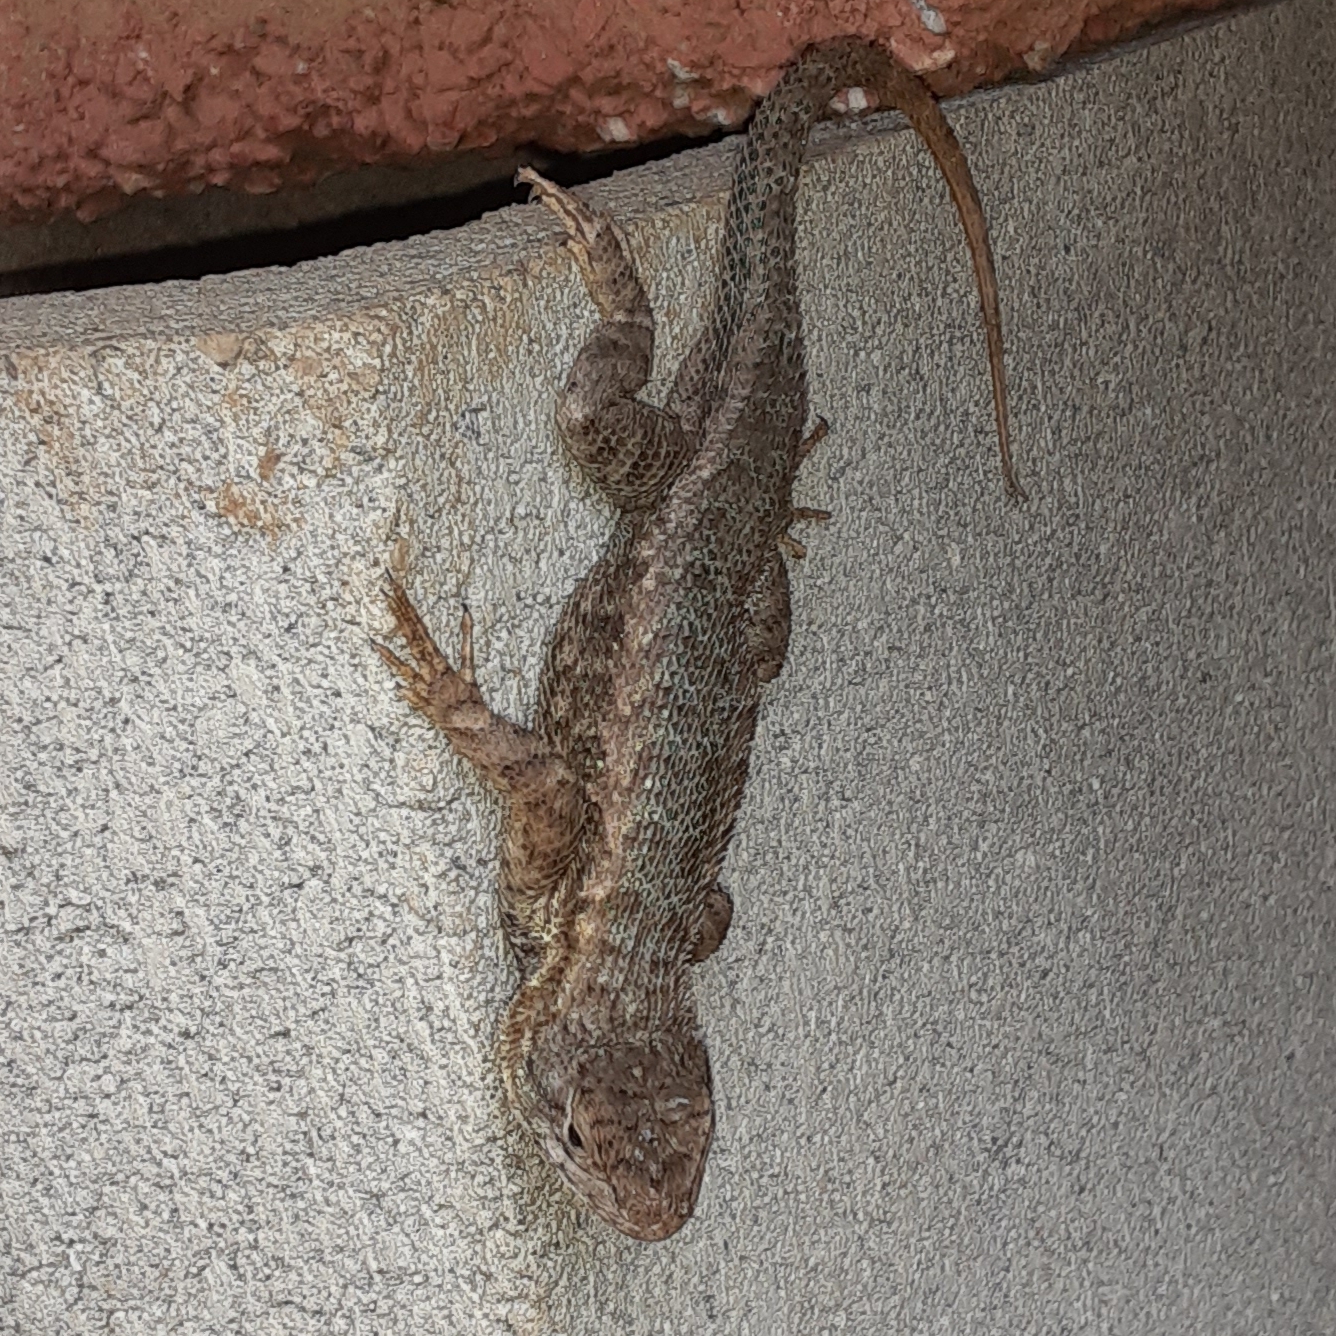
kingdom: Animalia
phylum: Chordata
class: Squamata
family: Phrynosomatidae
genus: Sceloporus
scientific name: Sceloporus occidentalis
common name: Western fence lizard
